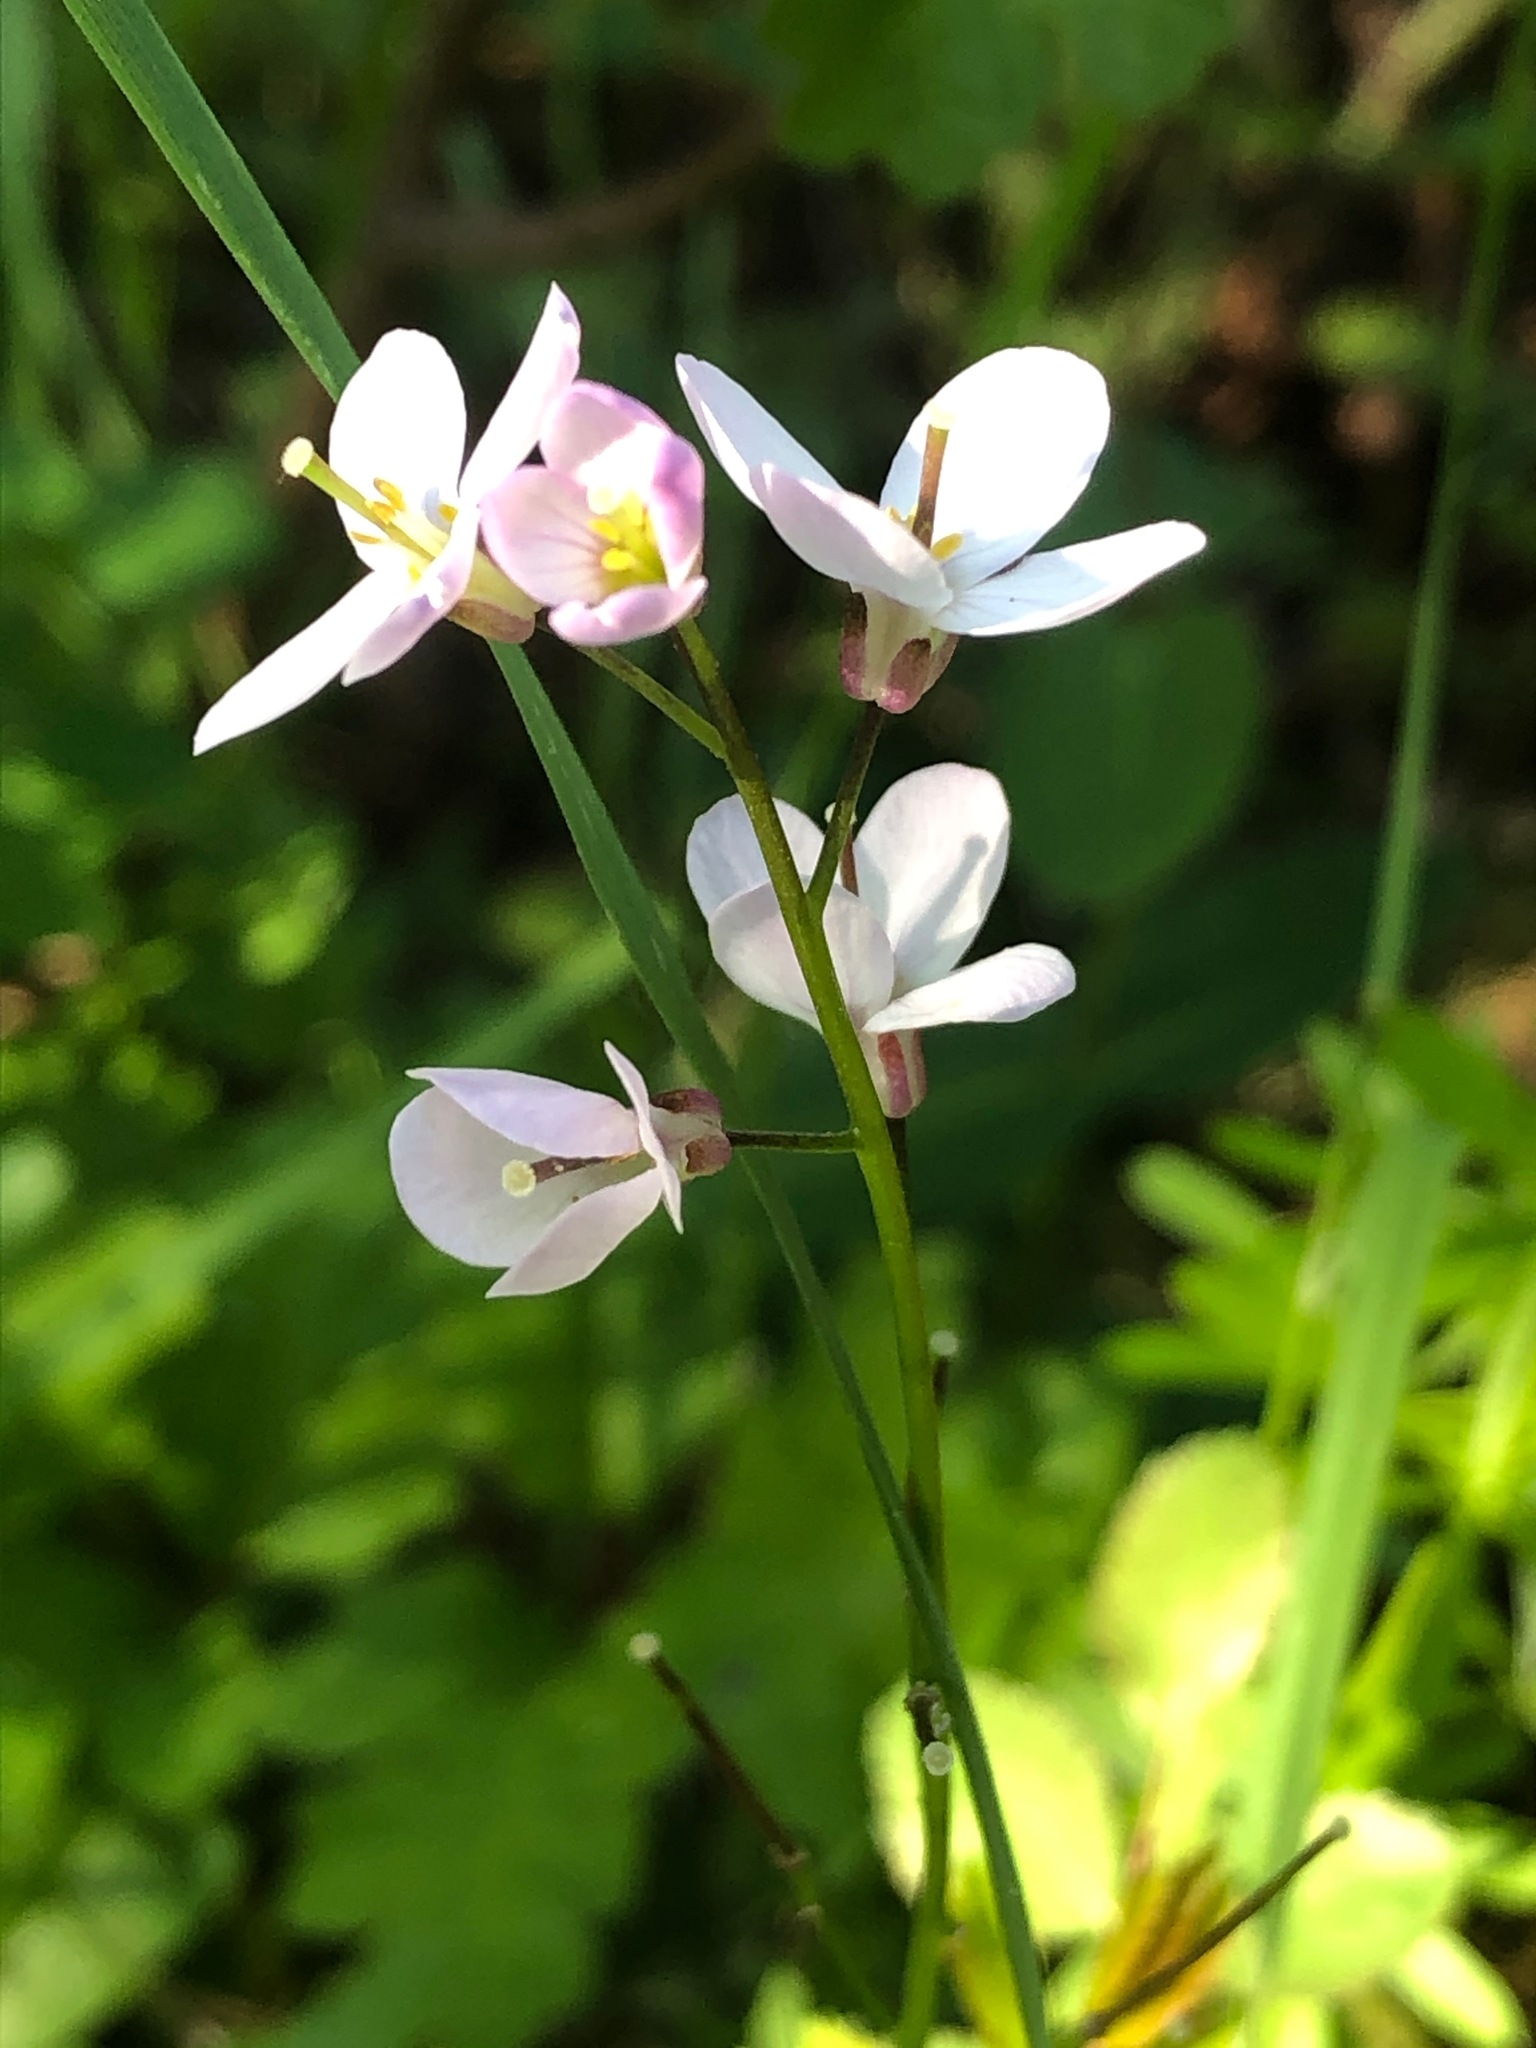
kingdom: Plantae
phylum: Tracheophyta
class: Magnoliopsida
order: Brassicales
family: Brassicaceae
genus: Cardamine
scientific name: Cardamine californica
